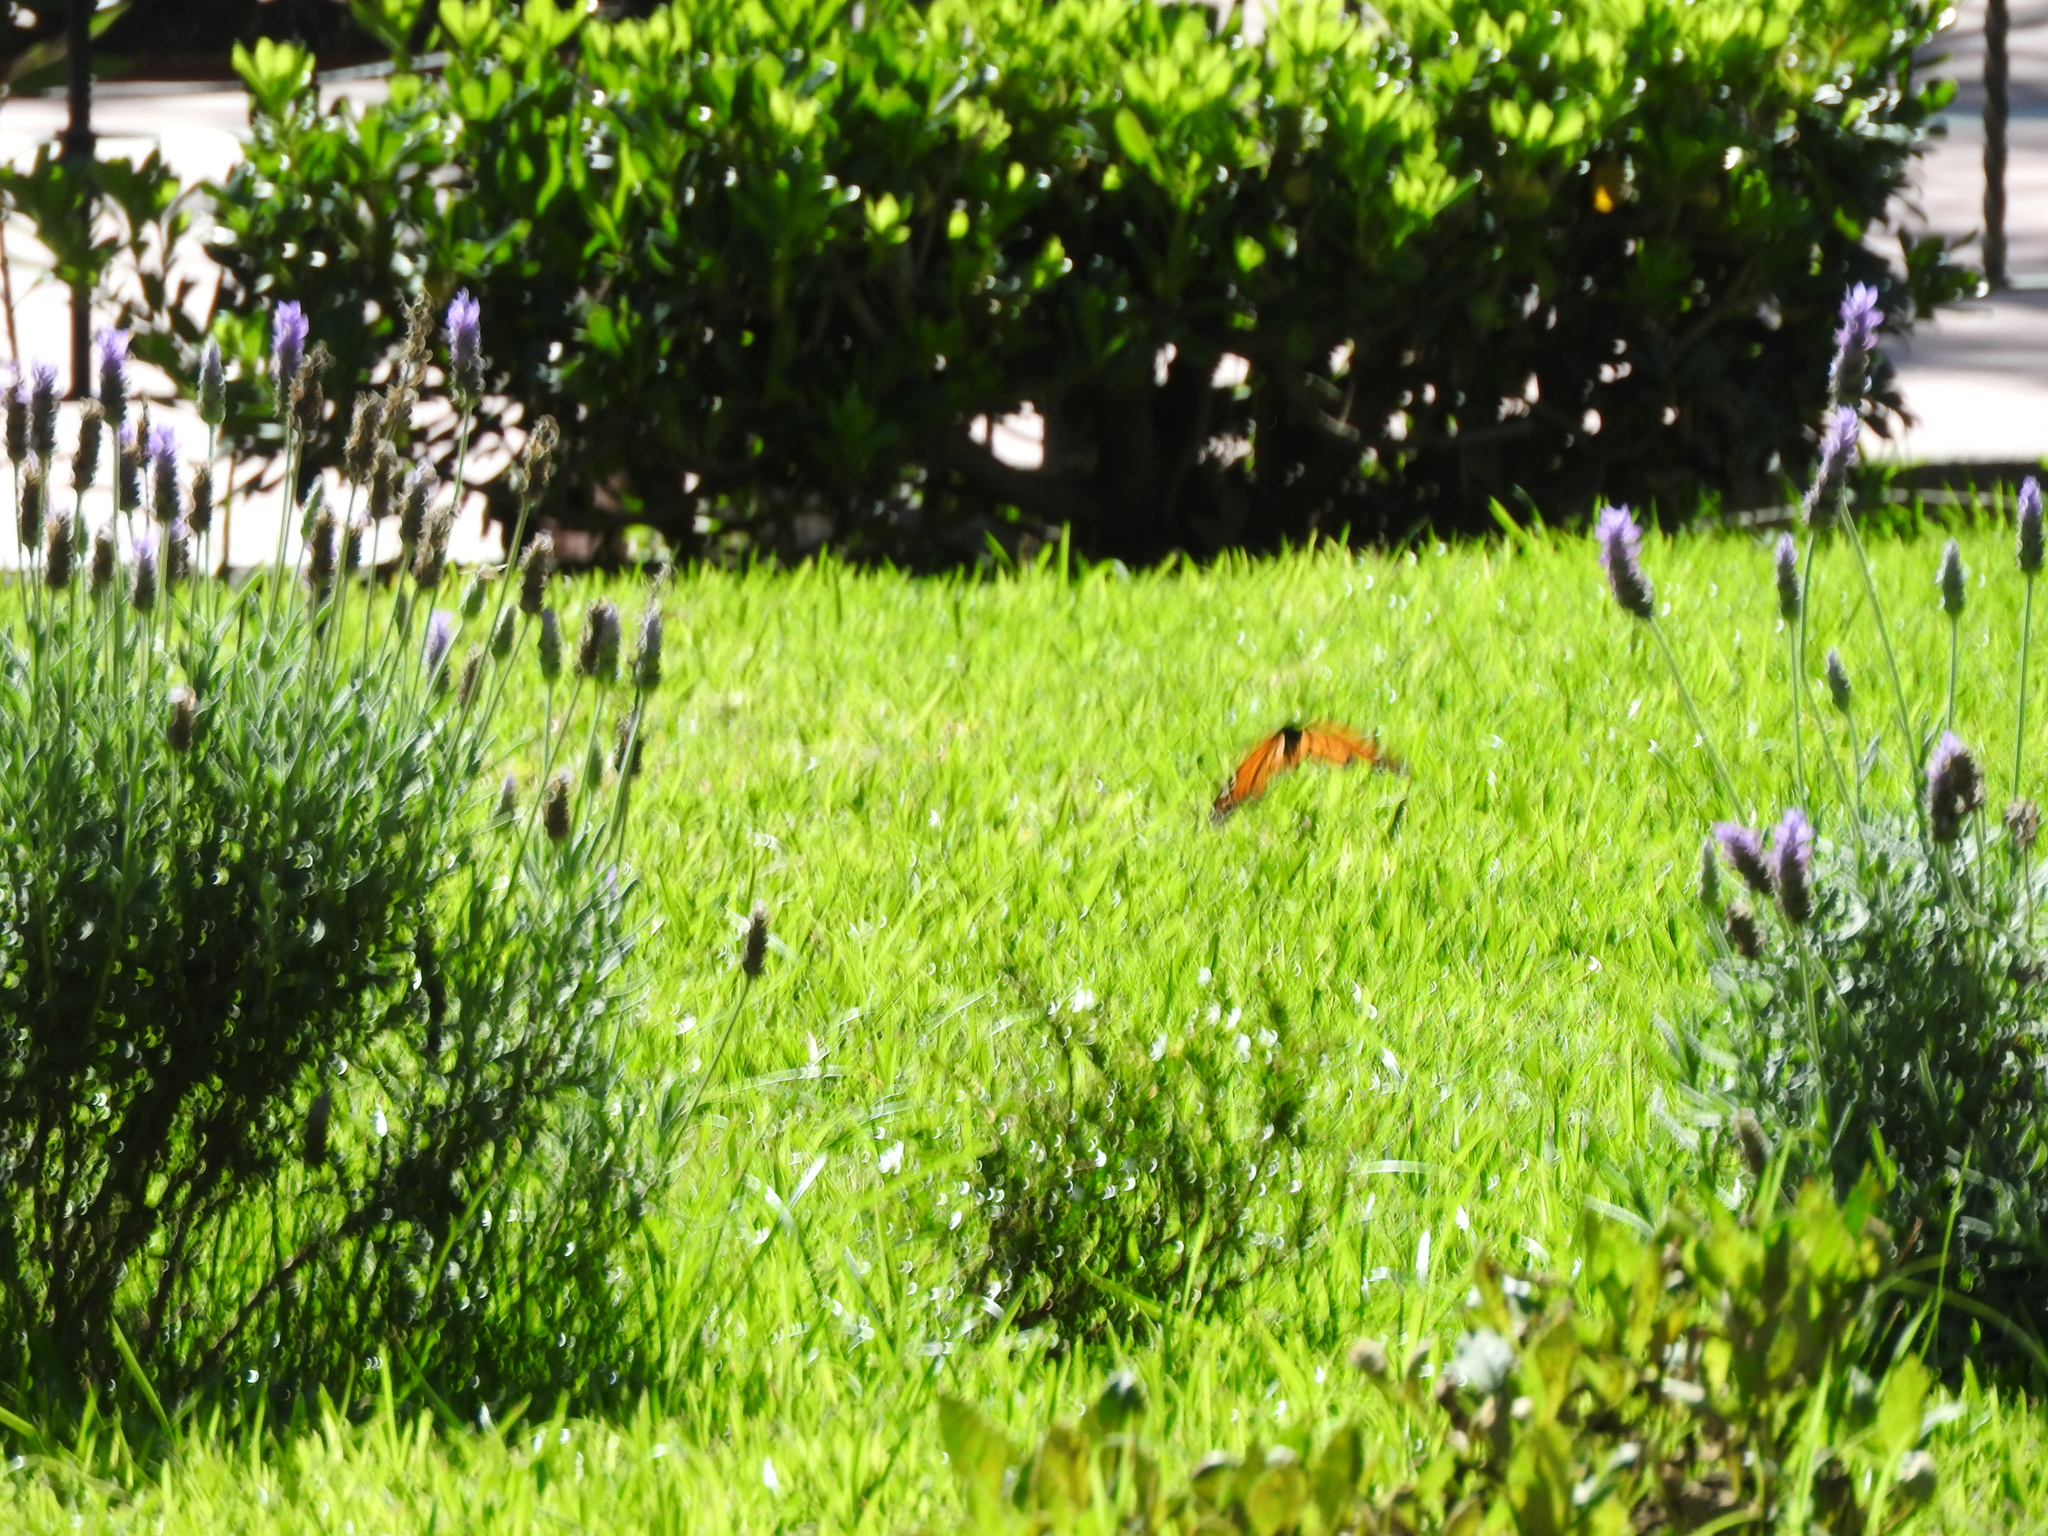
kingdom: Animalia
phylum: Arthropoda
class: Insecta
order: Lepidoptera
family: Nymphalidae
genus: Danaus
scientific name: Danaus plexippus
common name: Monarch
